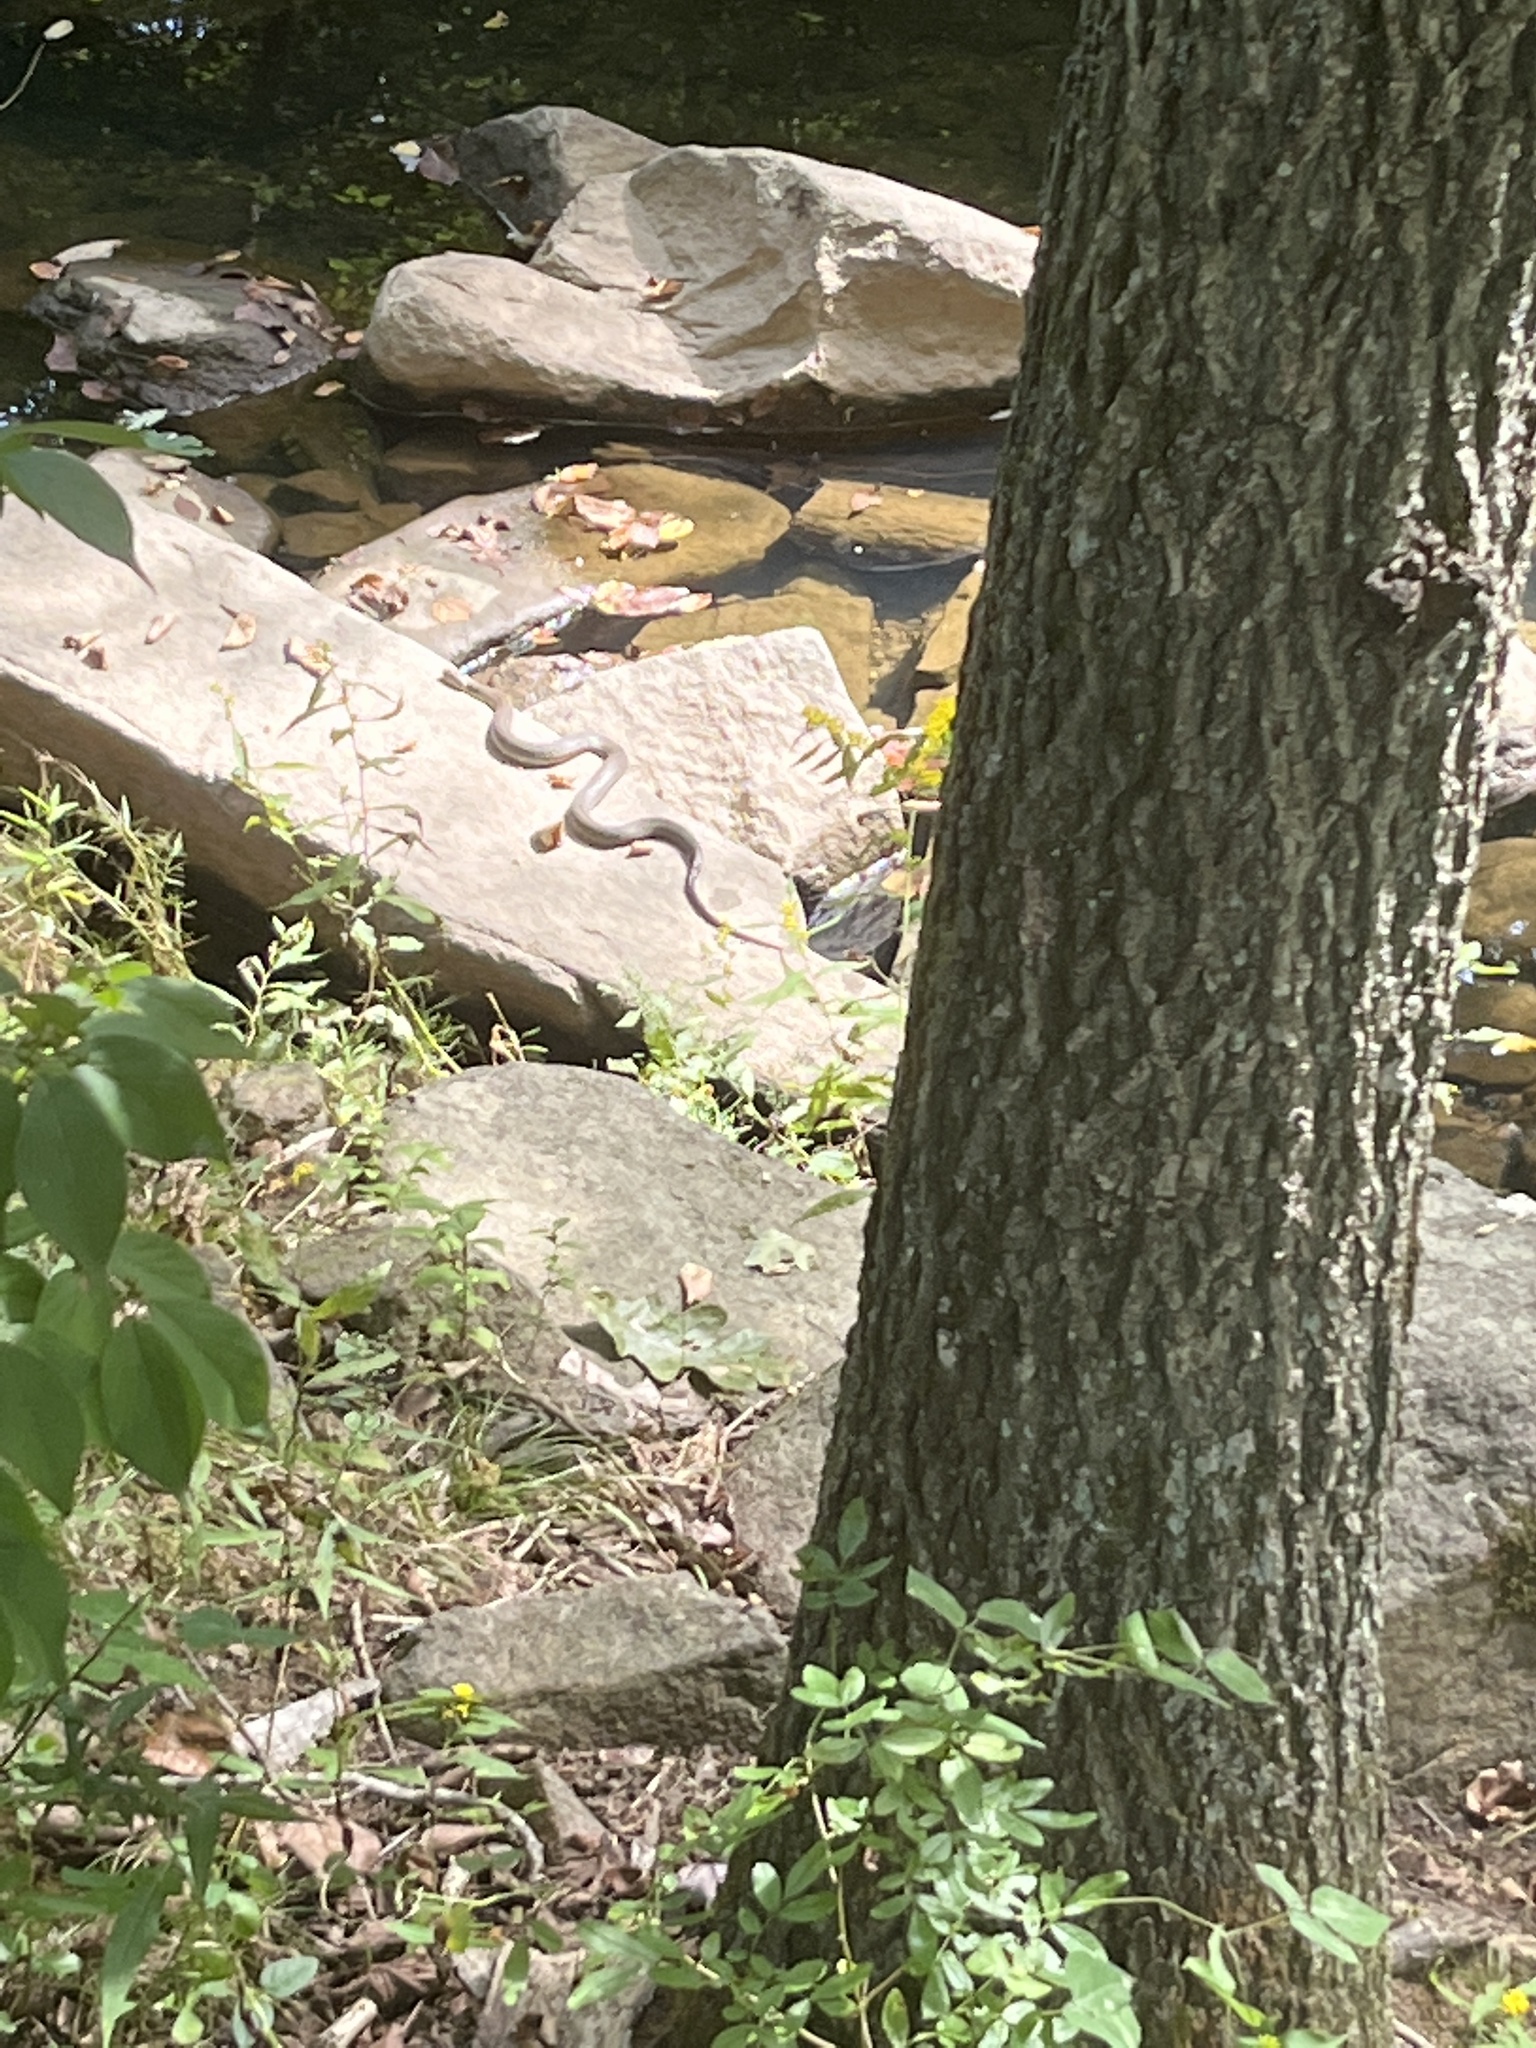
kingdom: Animalia
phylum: Chordata
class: Squamata
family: Colubridae
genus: Nerodia
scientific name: Nerodia sipedon
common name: Northern water snake
